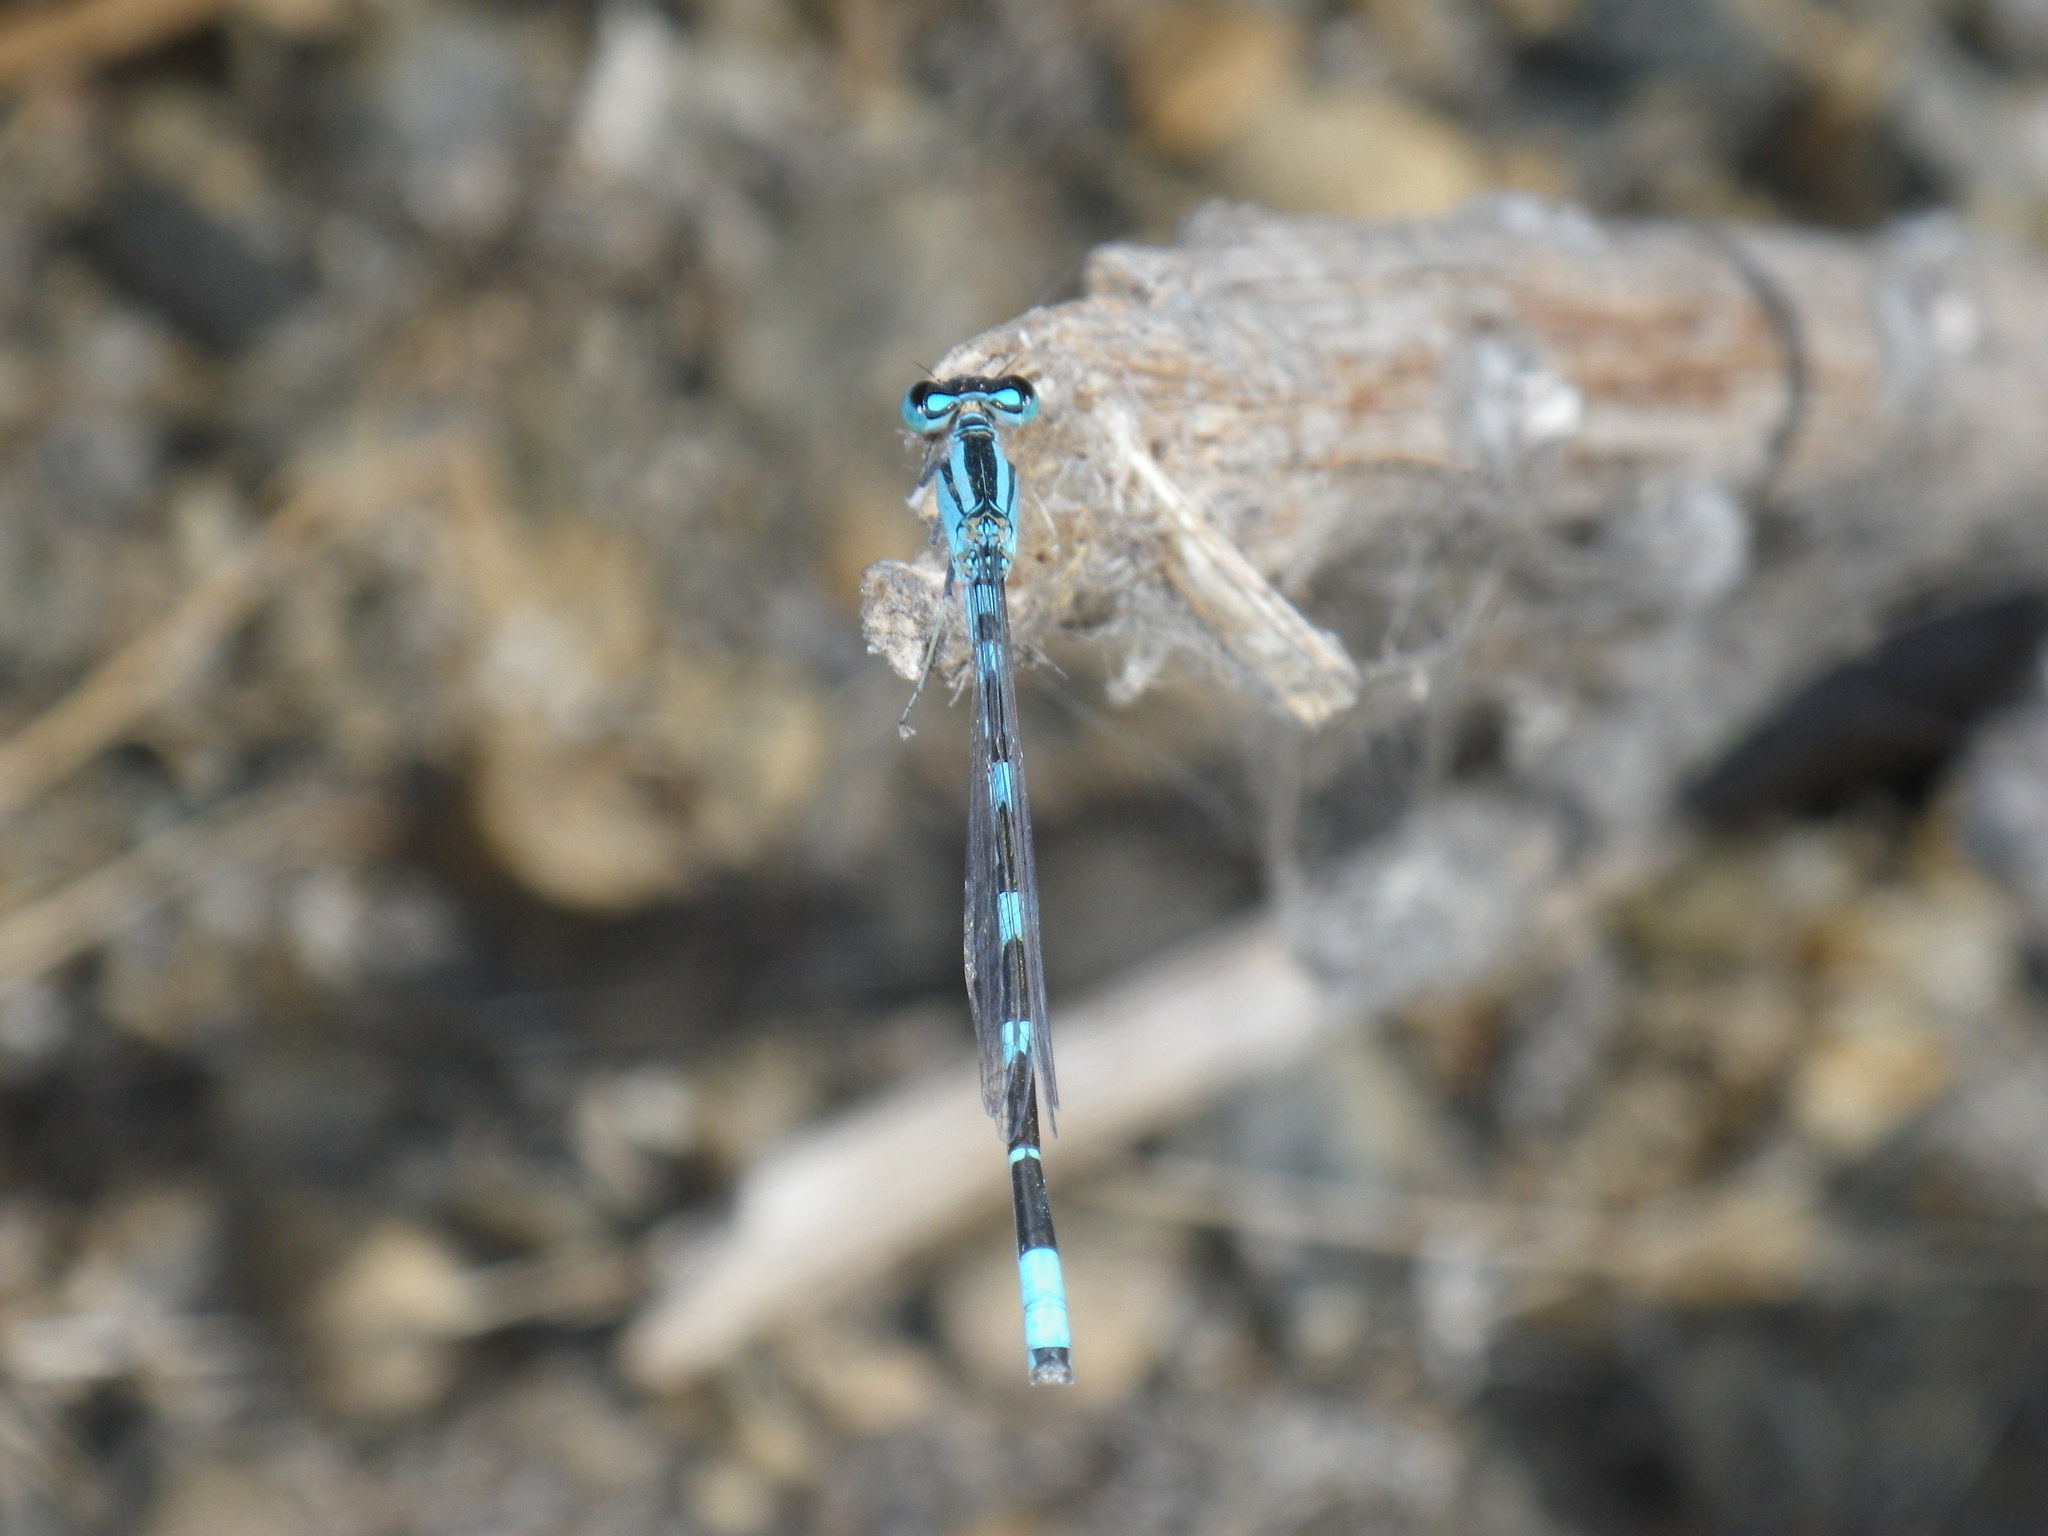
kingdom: Animalia
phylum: Arthropoda
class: Insecta
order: Odonata
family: Coenagrionidae
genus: Enallagma
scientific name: Enallagma carunculatum
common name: Tule bluet
